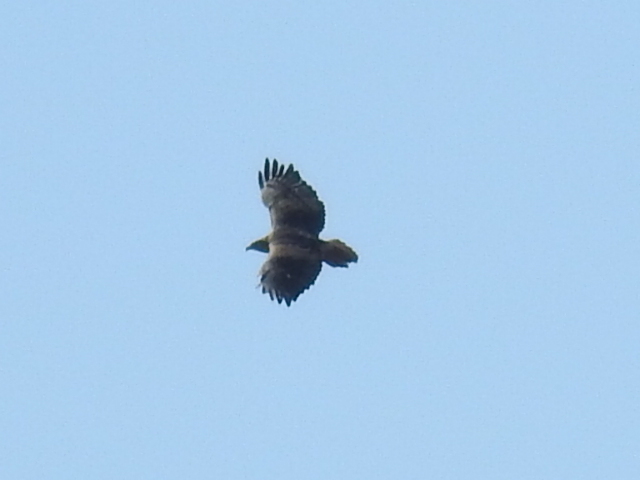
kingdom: Animalia
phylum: Chordata
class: Aves
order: Accipitriformes
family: Accipitridae
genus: Buteo
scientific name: Buteo jamaicensis
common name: Red-tailed hawk
